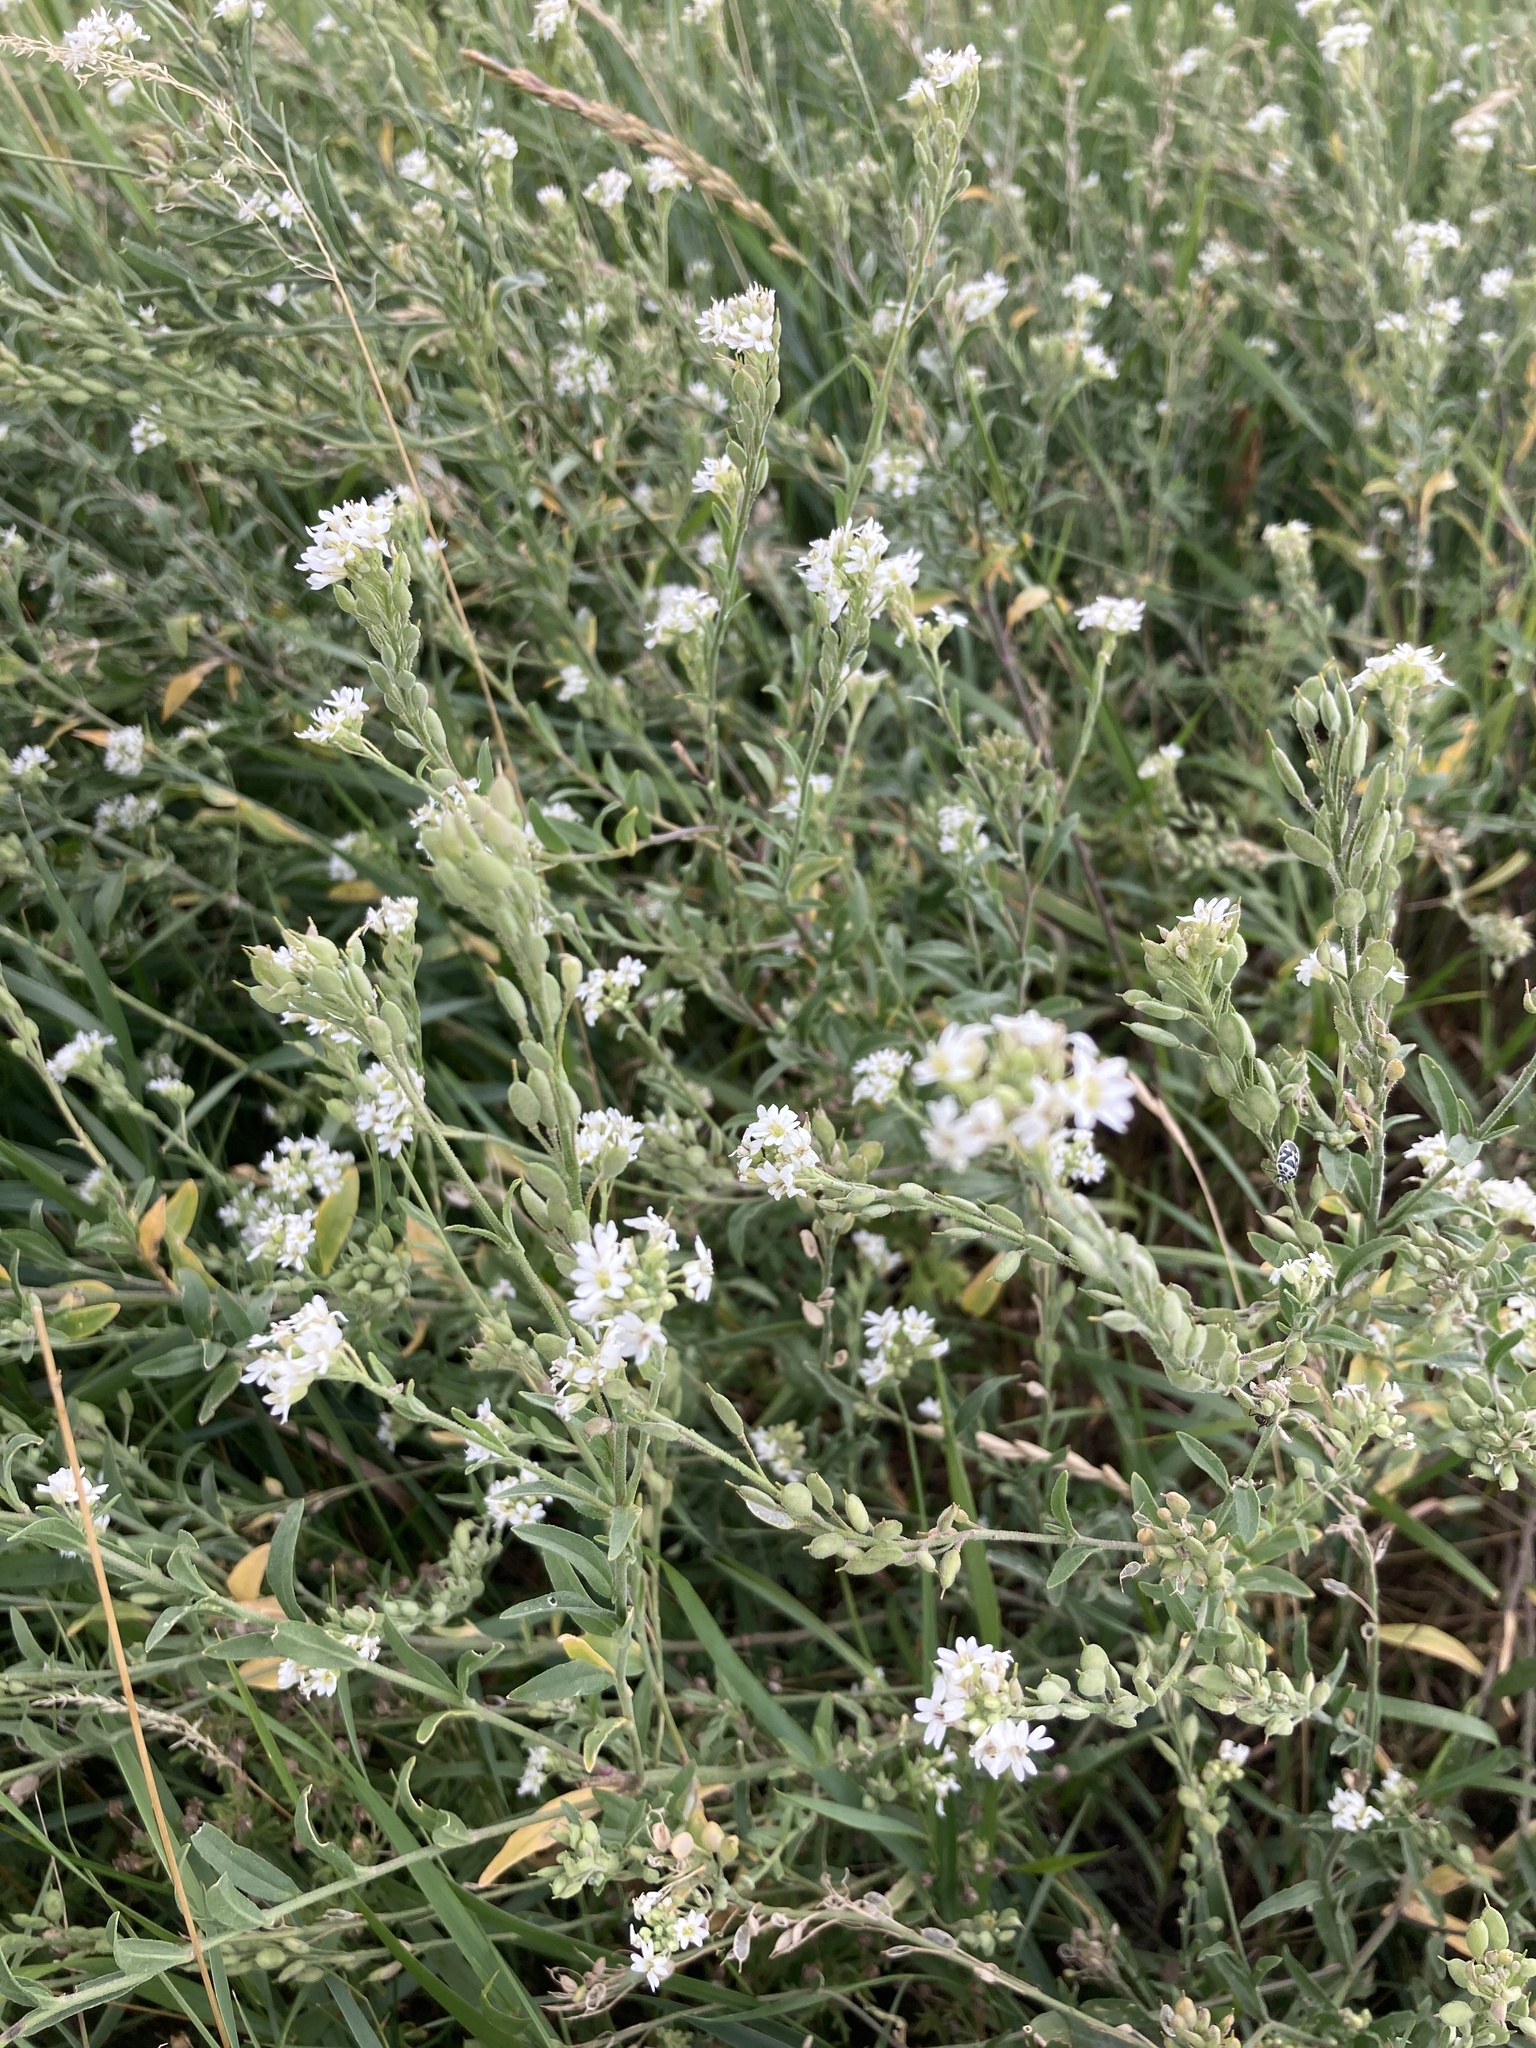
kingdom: Plantae
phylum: Tracheophyta
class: Magnoliopsida
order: Brassicales
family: Brassicaceae
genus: Berteroa
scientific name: Berteroa incana
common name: Hoary alison
